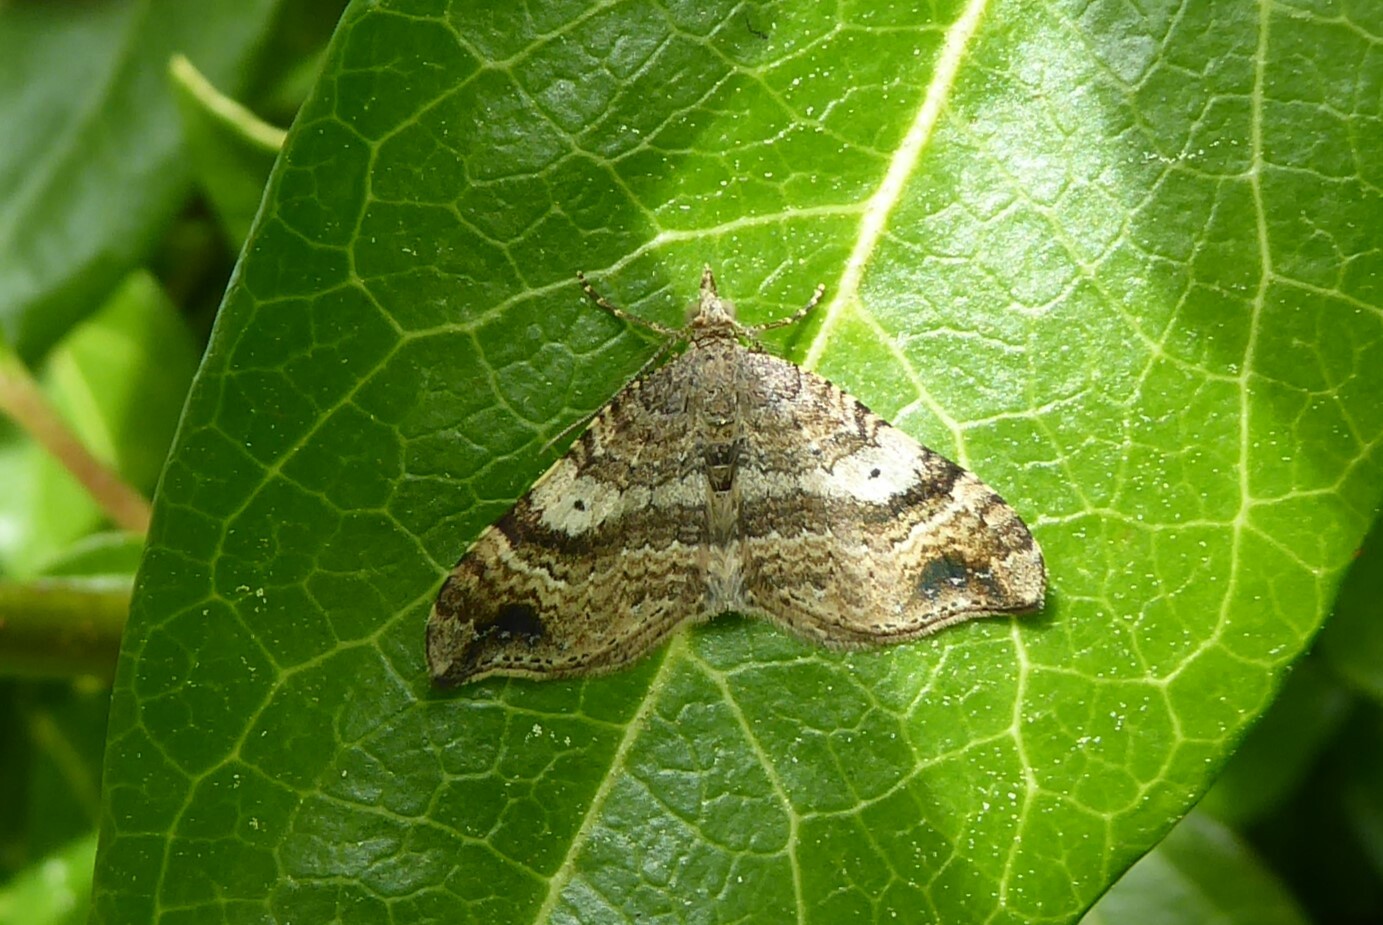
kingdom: Animalia
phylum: Arthropoda
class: Insecta
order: Lepidoptera
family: Geometridae
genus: Homodotis
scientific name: Homodotis megaspilata
